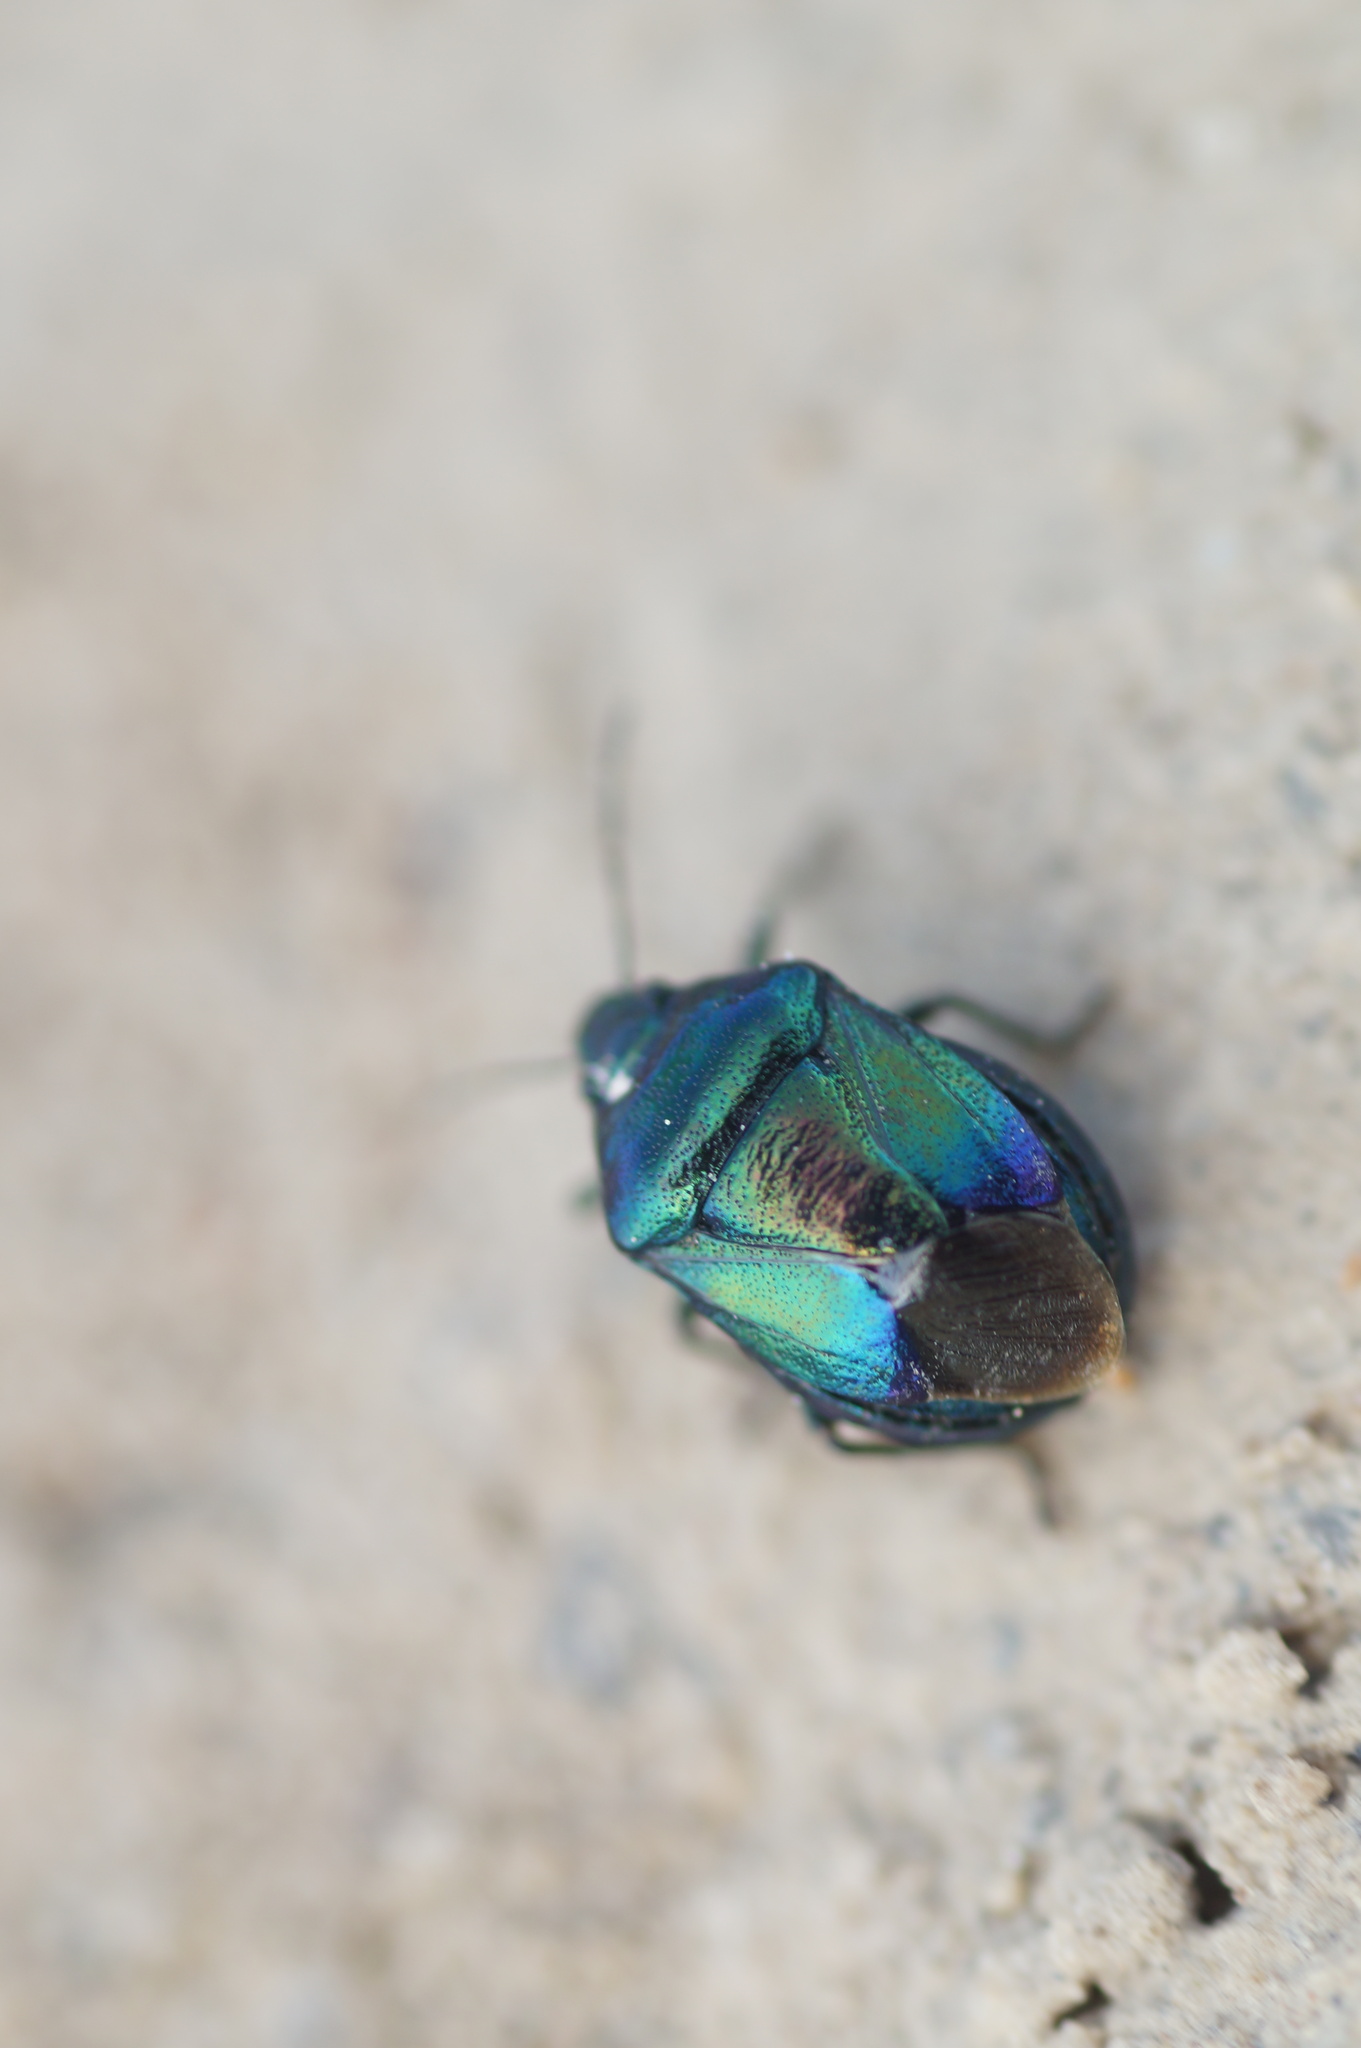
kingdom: Animalia
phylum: Arthropoda
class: Insecta
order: Hemiptera
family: Pentatomidae
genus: Zicrona
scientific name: Zicrona caerulea
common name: Blue shieldbug
